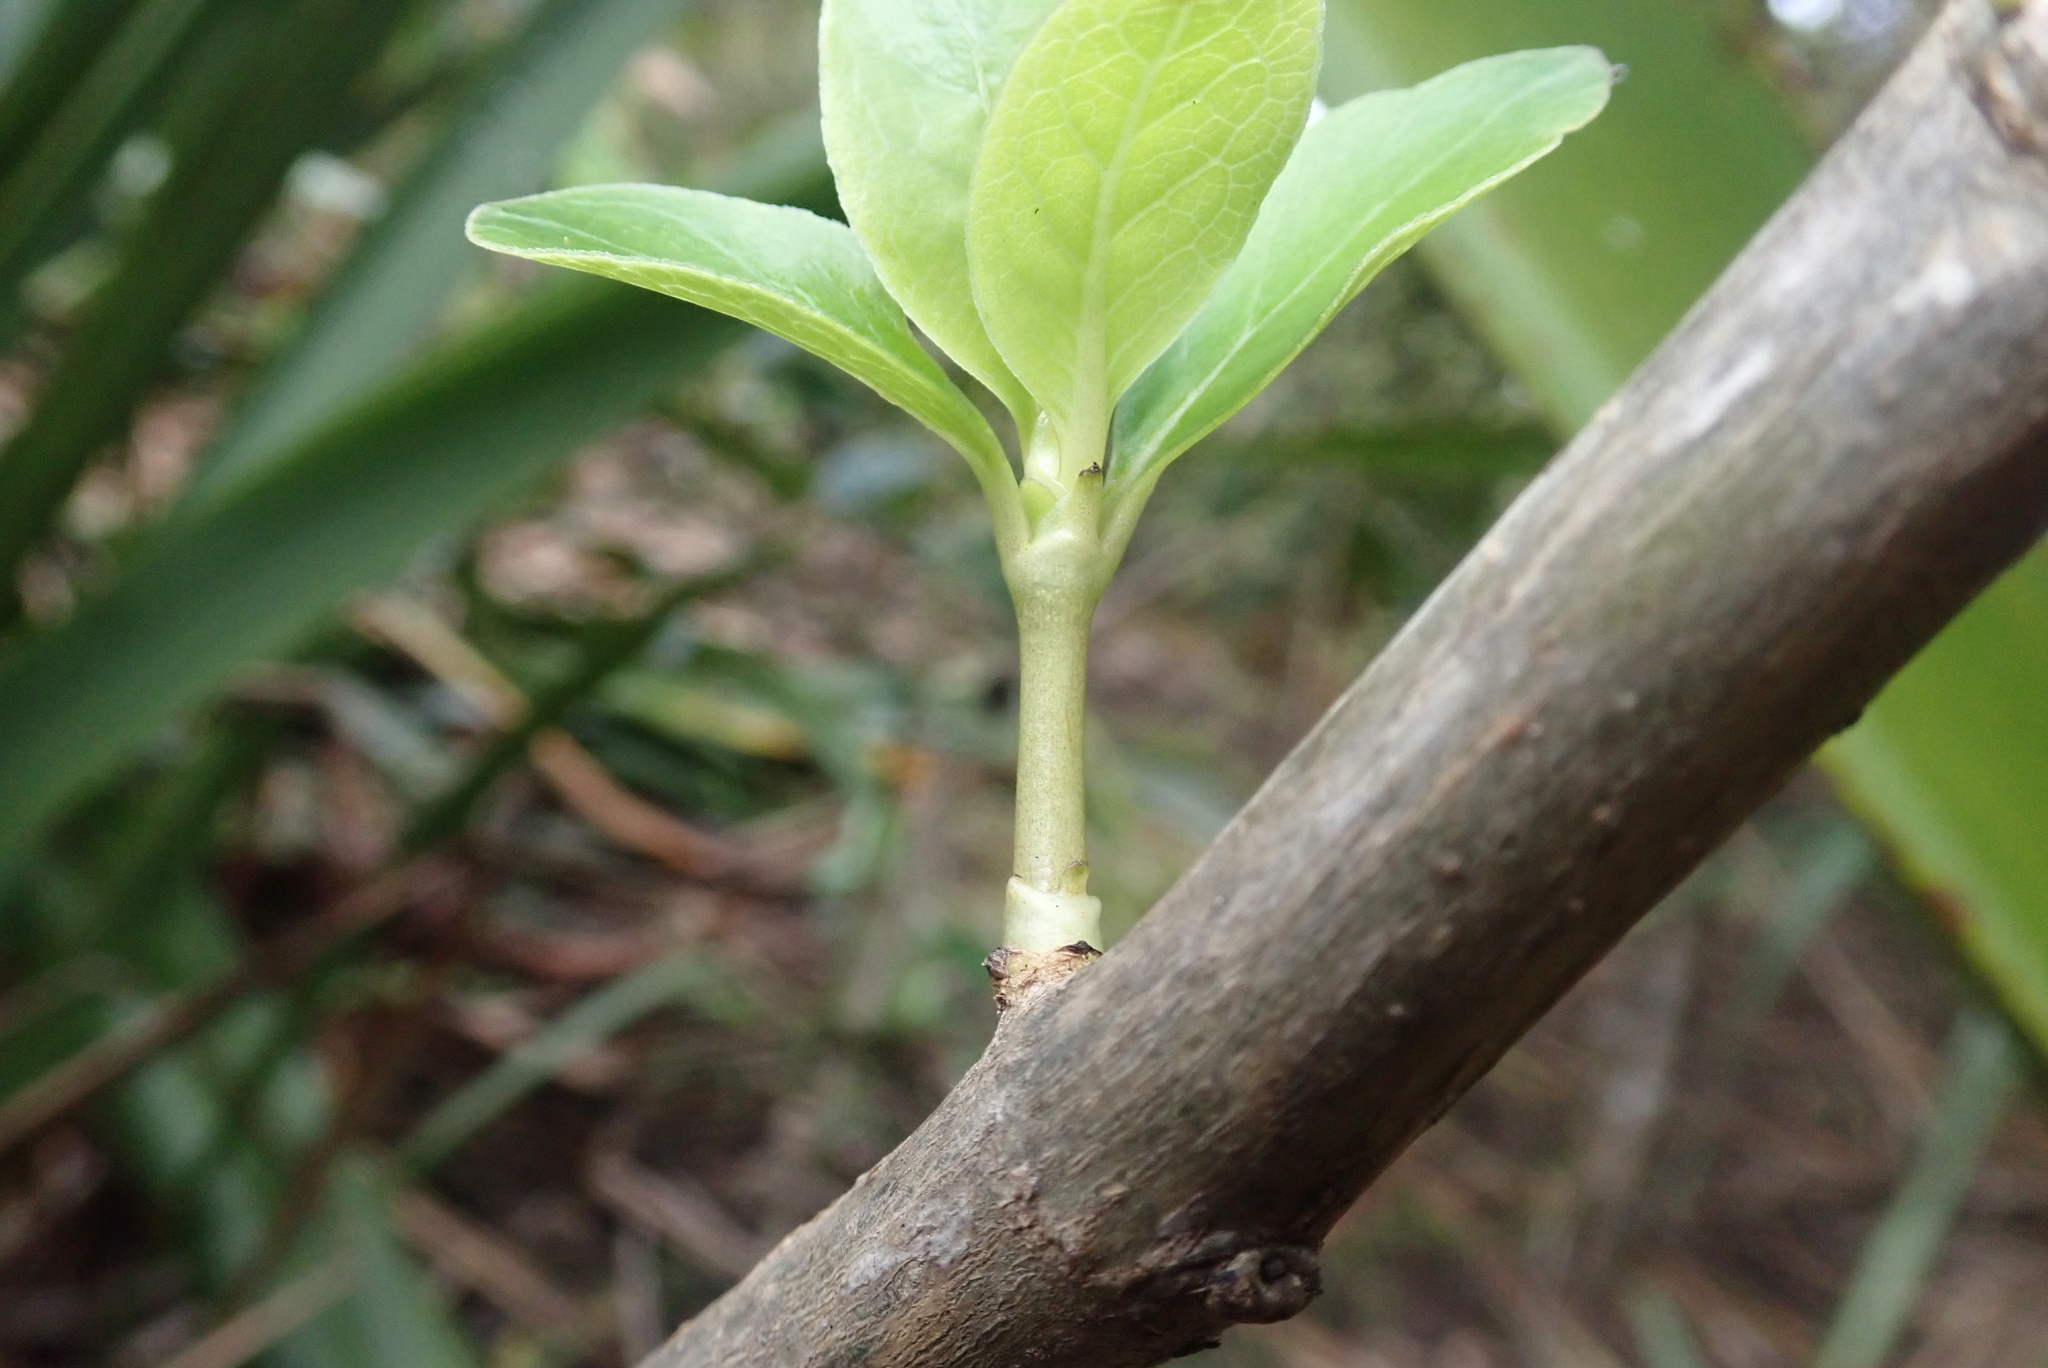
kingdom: Plantae
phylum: Tracheophyta
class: Magnoliopsida
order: Gentianales
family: Rubiaceae
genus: Coprosma
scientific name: Coprosma robusta
